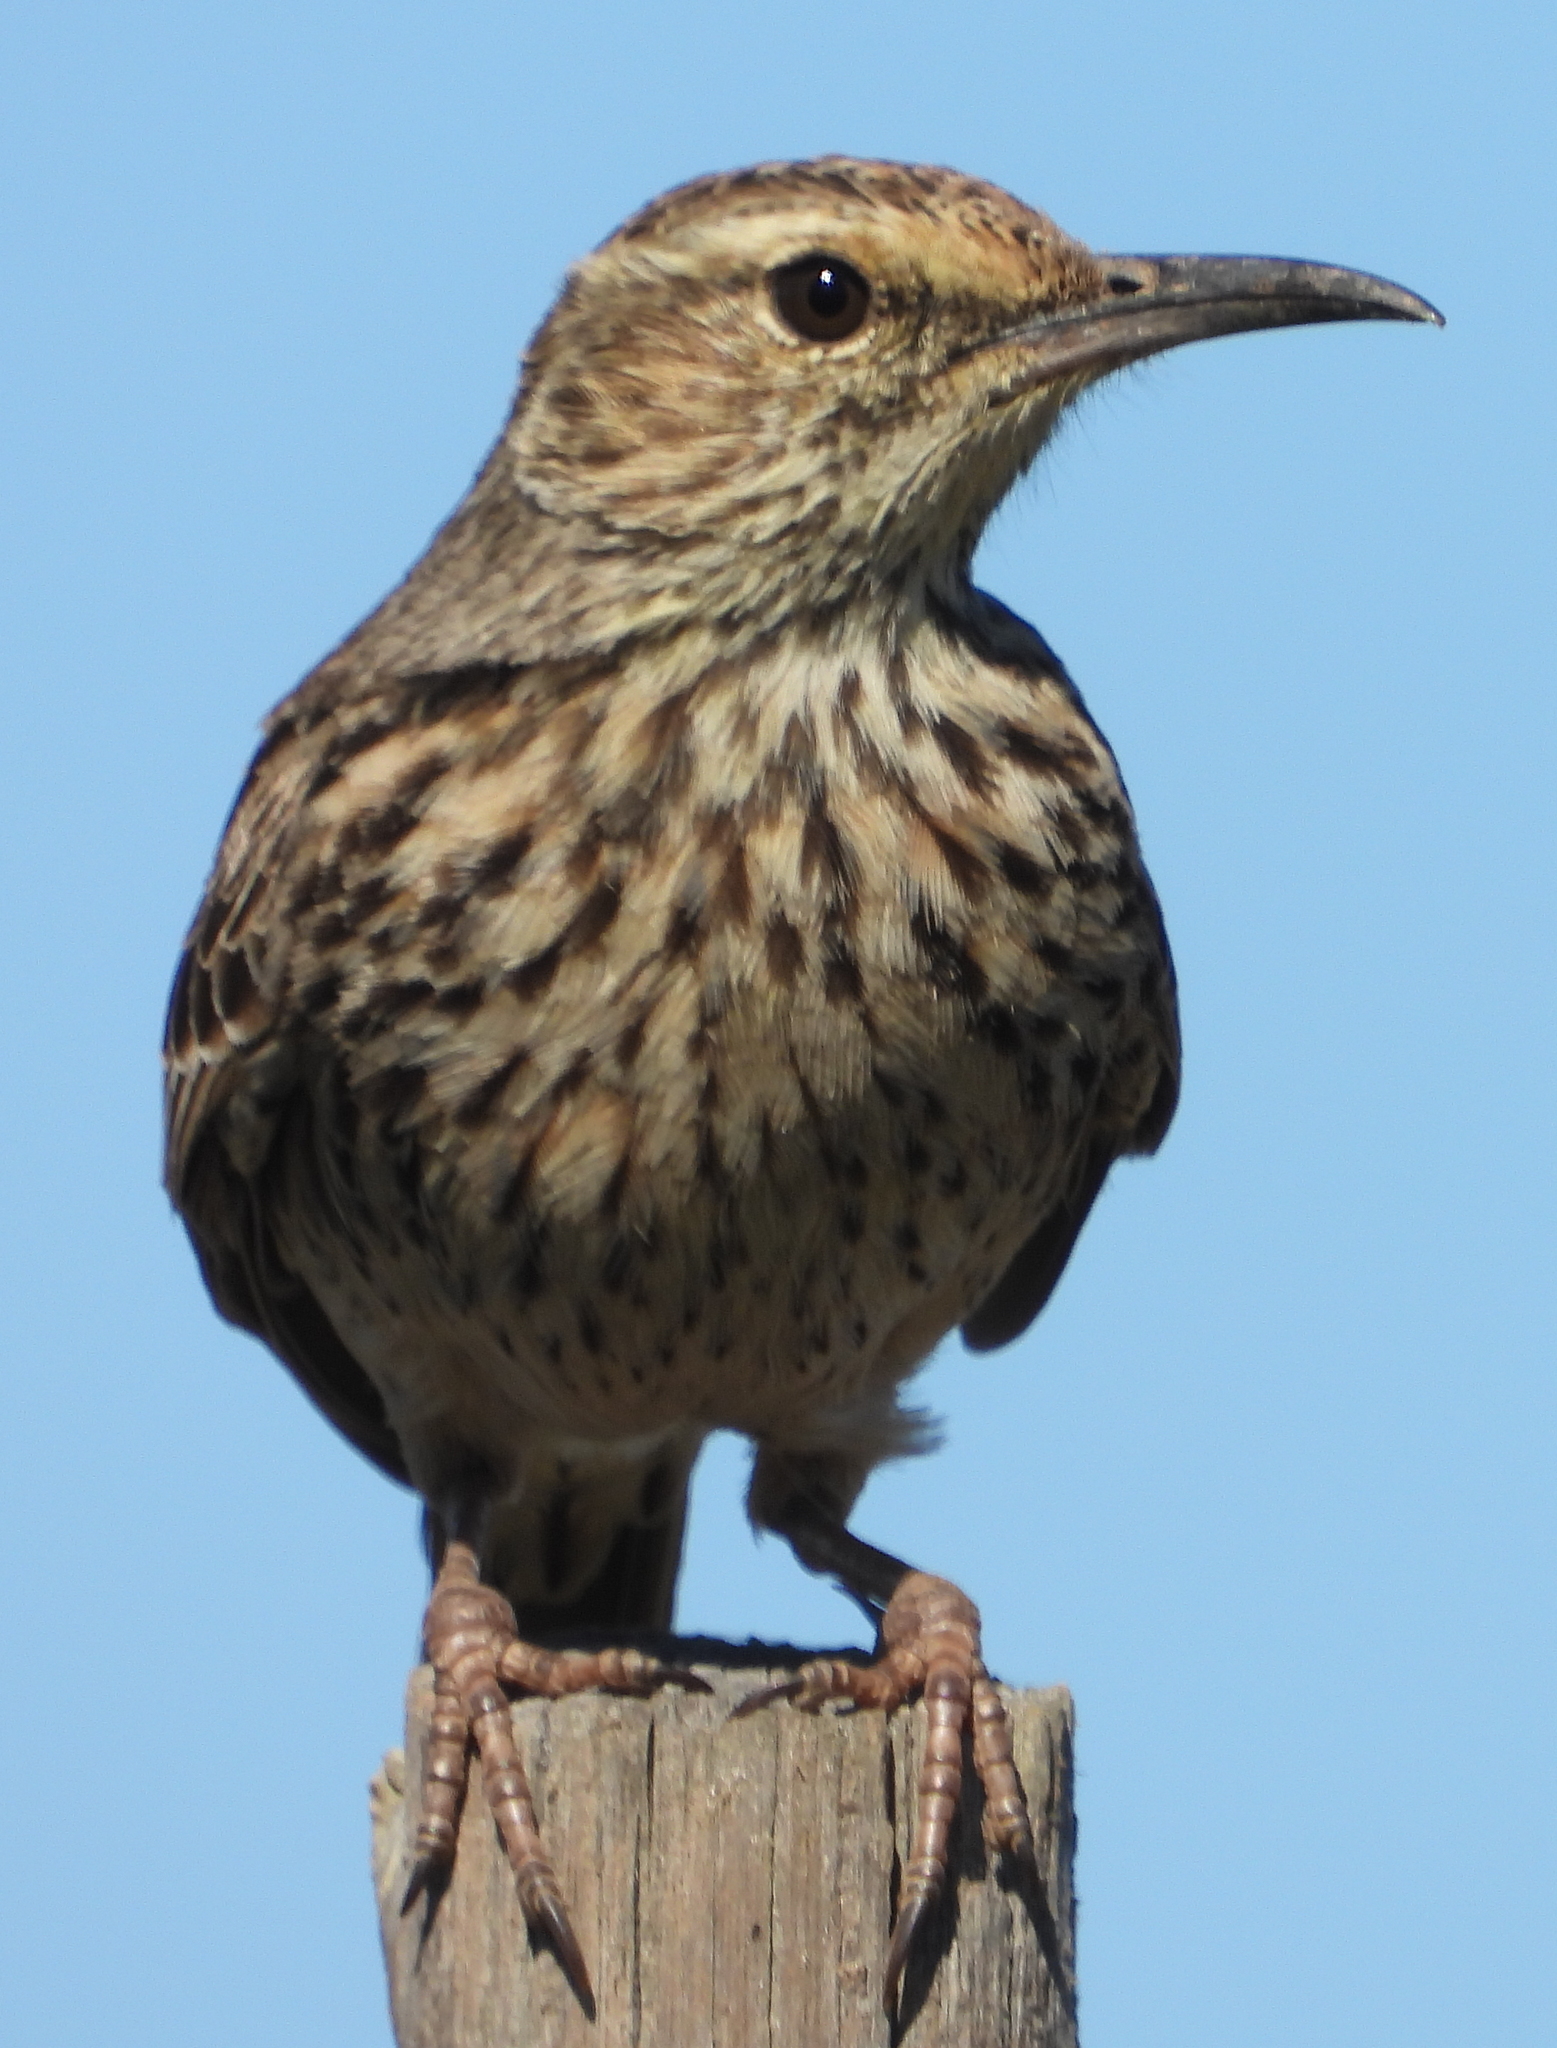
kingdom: Animalia
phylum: Chordata
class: Aves
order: Passeriformes
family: Alaudidae
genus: Certhilauda
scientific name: Certhilauda curvirostris
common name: Cape long-billed lark
